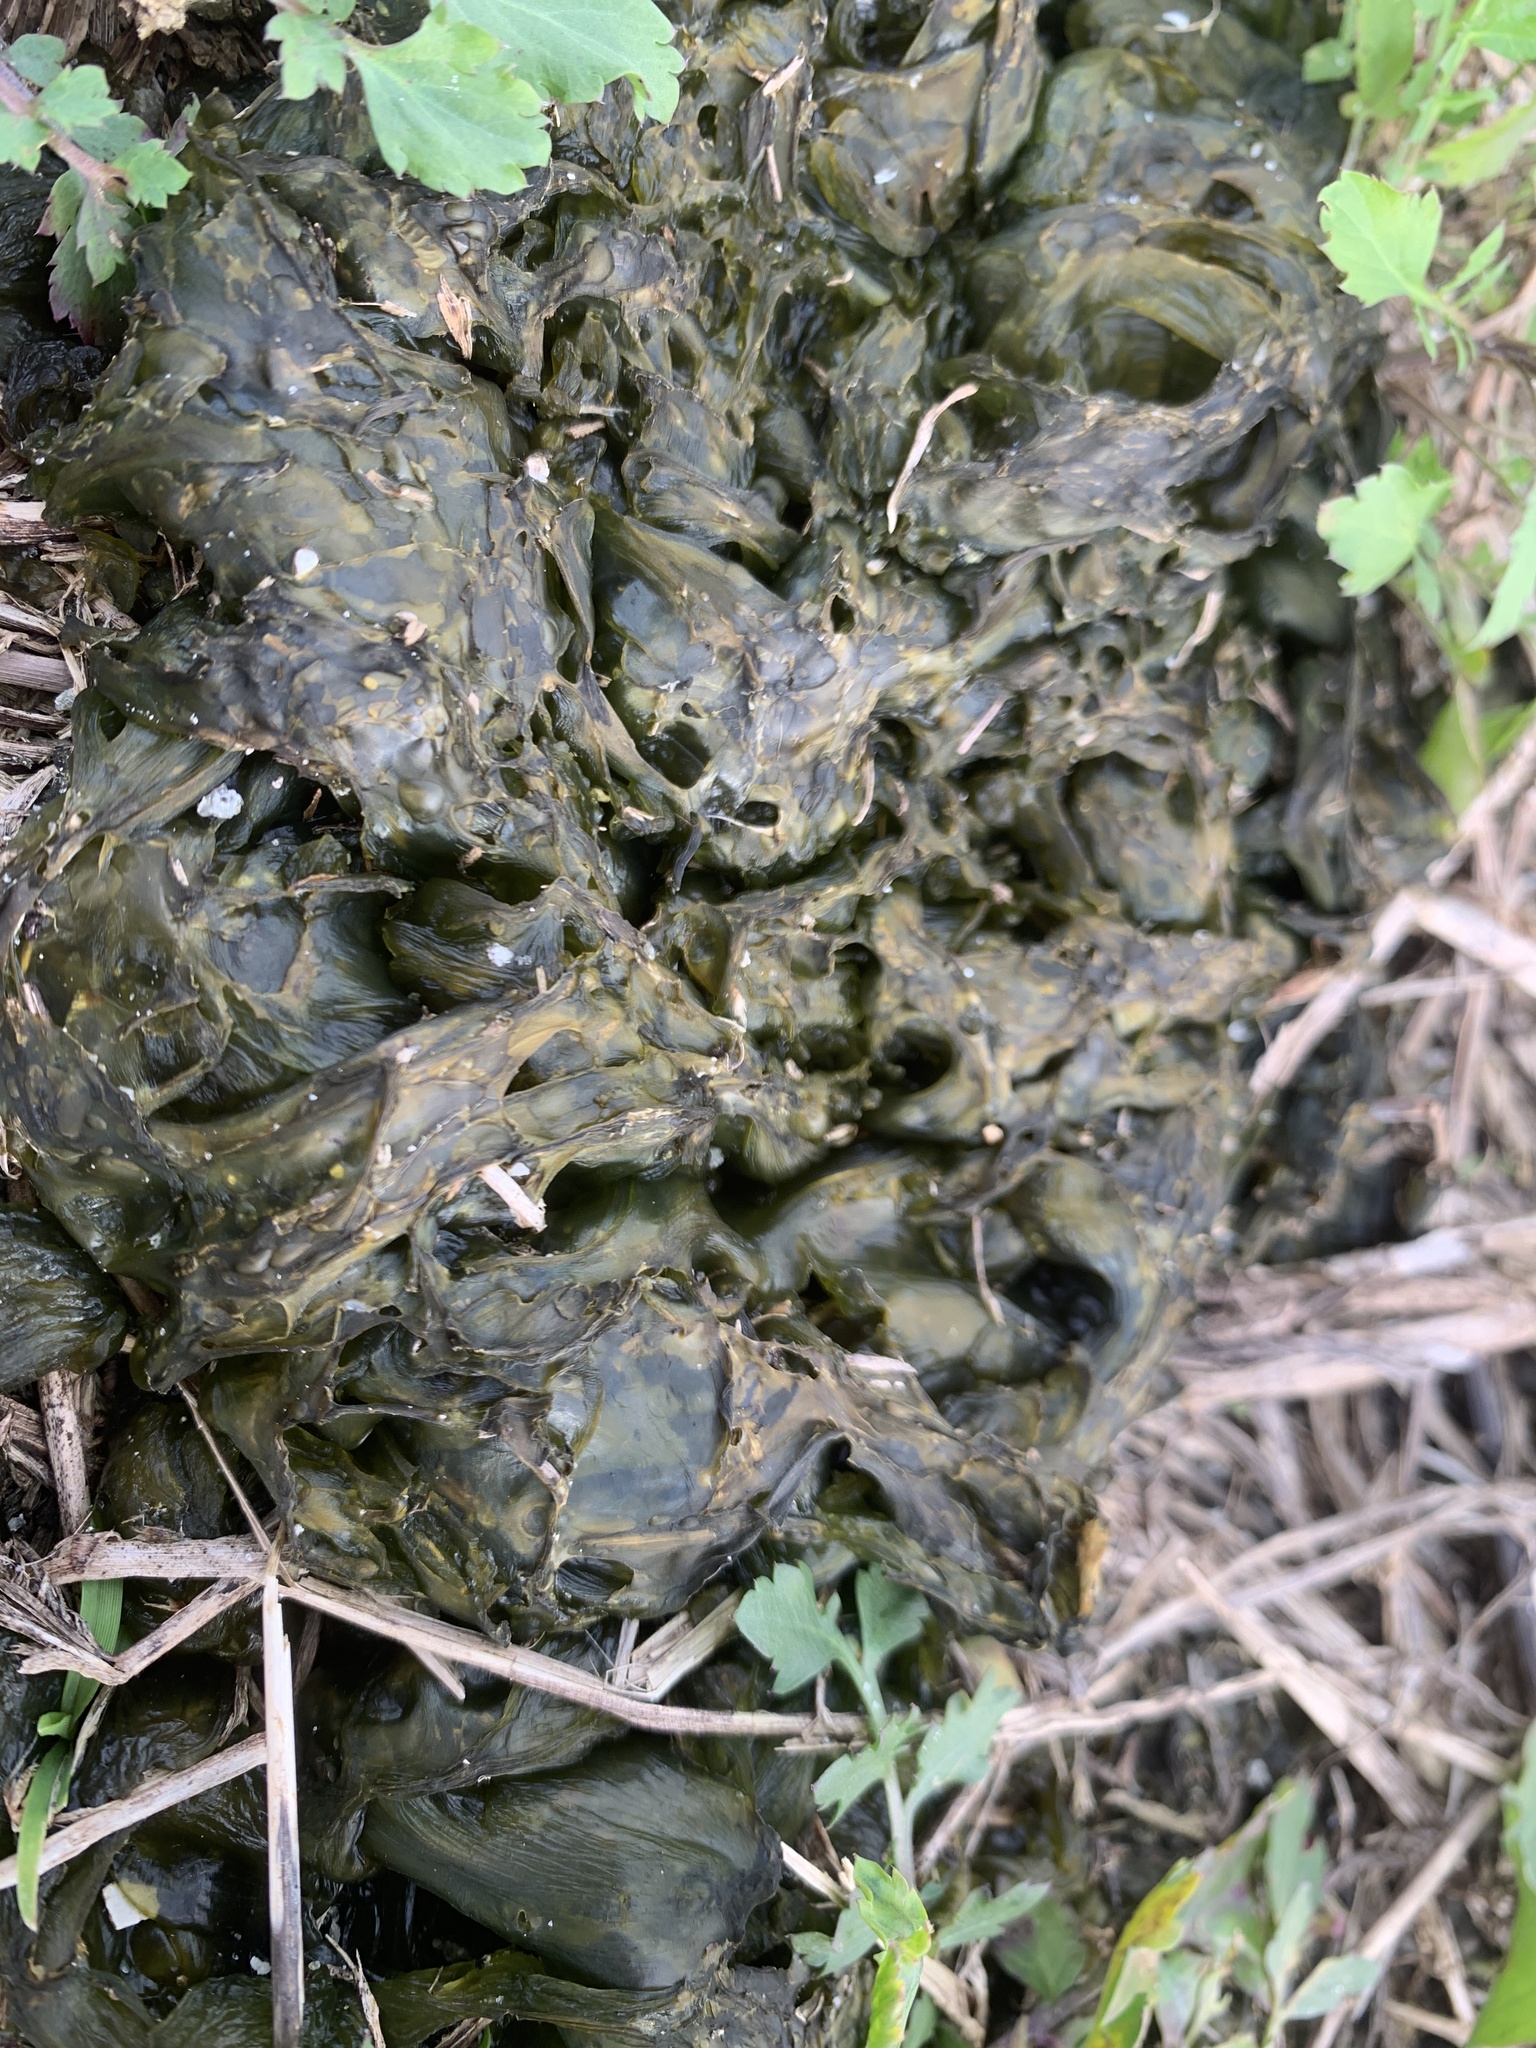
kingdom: Bacteria
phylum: Cyanobacteria
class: Cyanobacteriia
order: Cyanobacteriales
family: Nostocaceae
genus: Nostoc
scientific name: Nostoc commune
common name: Star jelly
